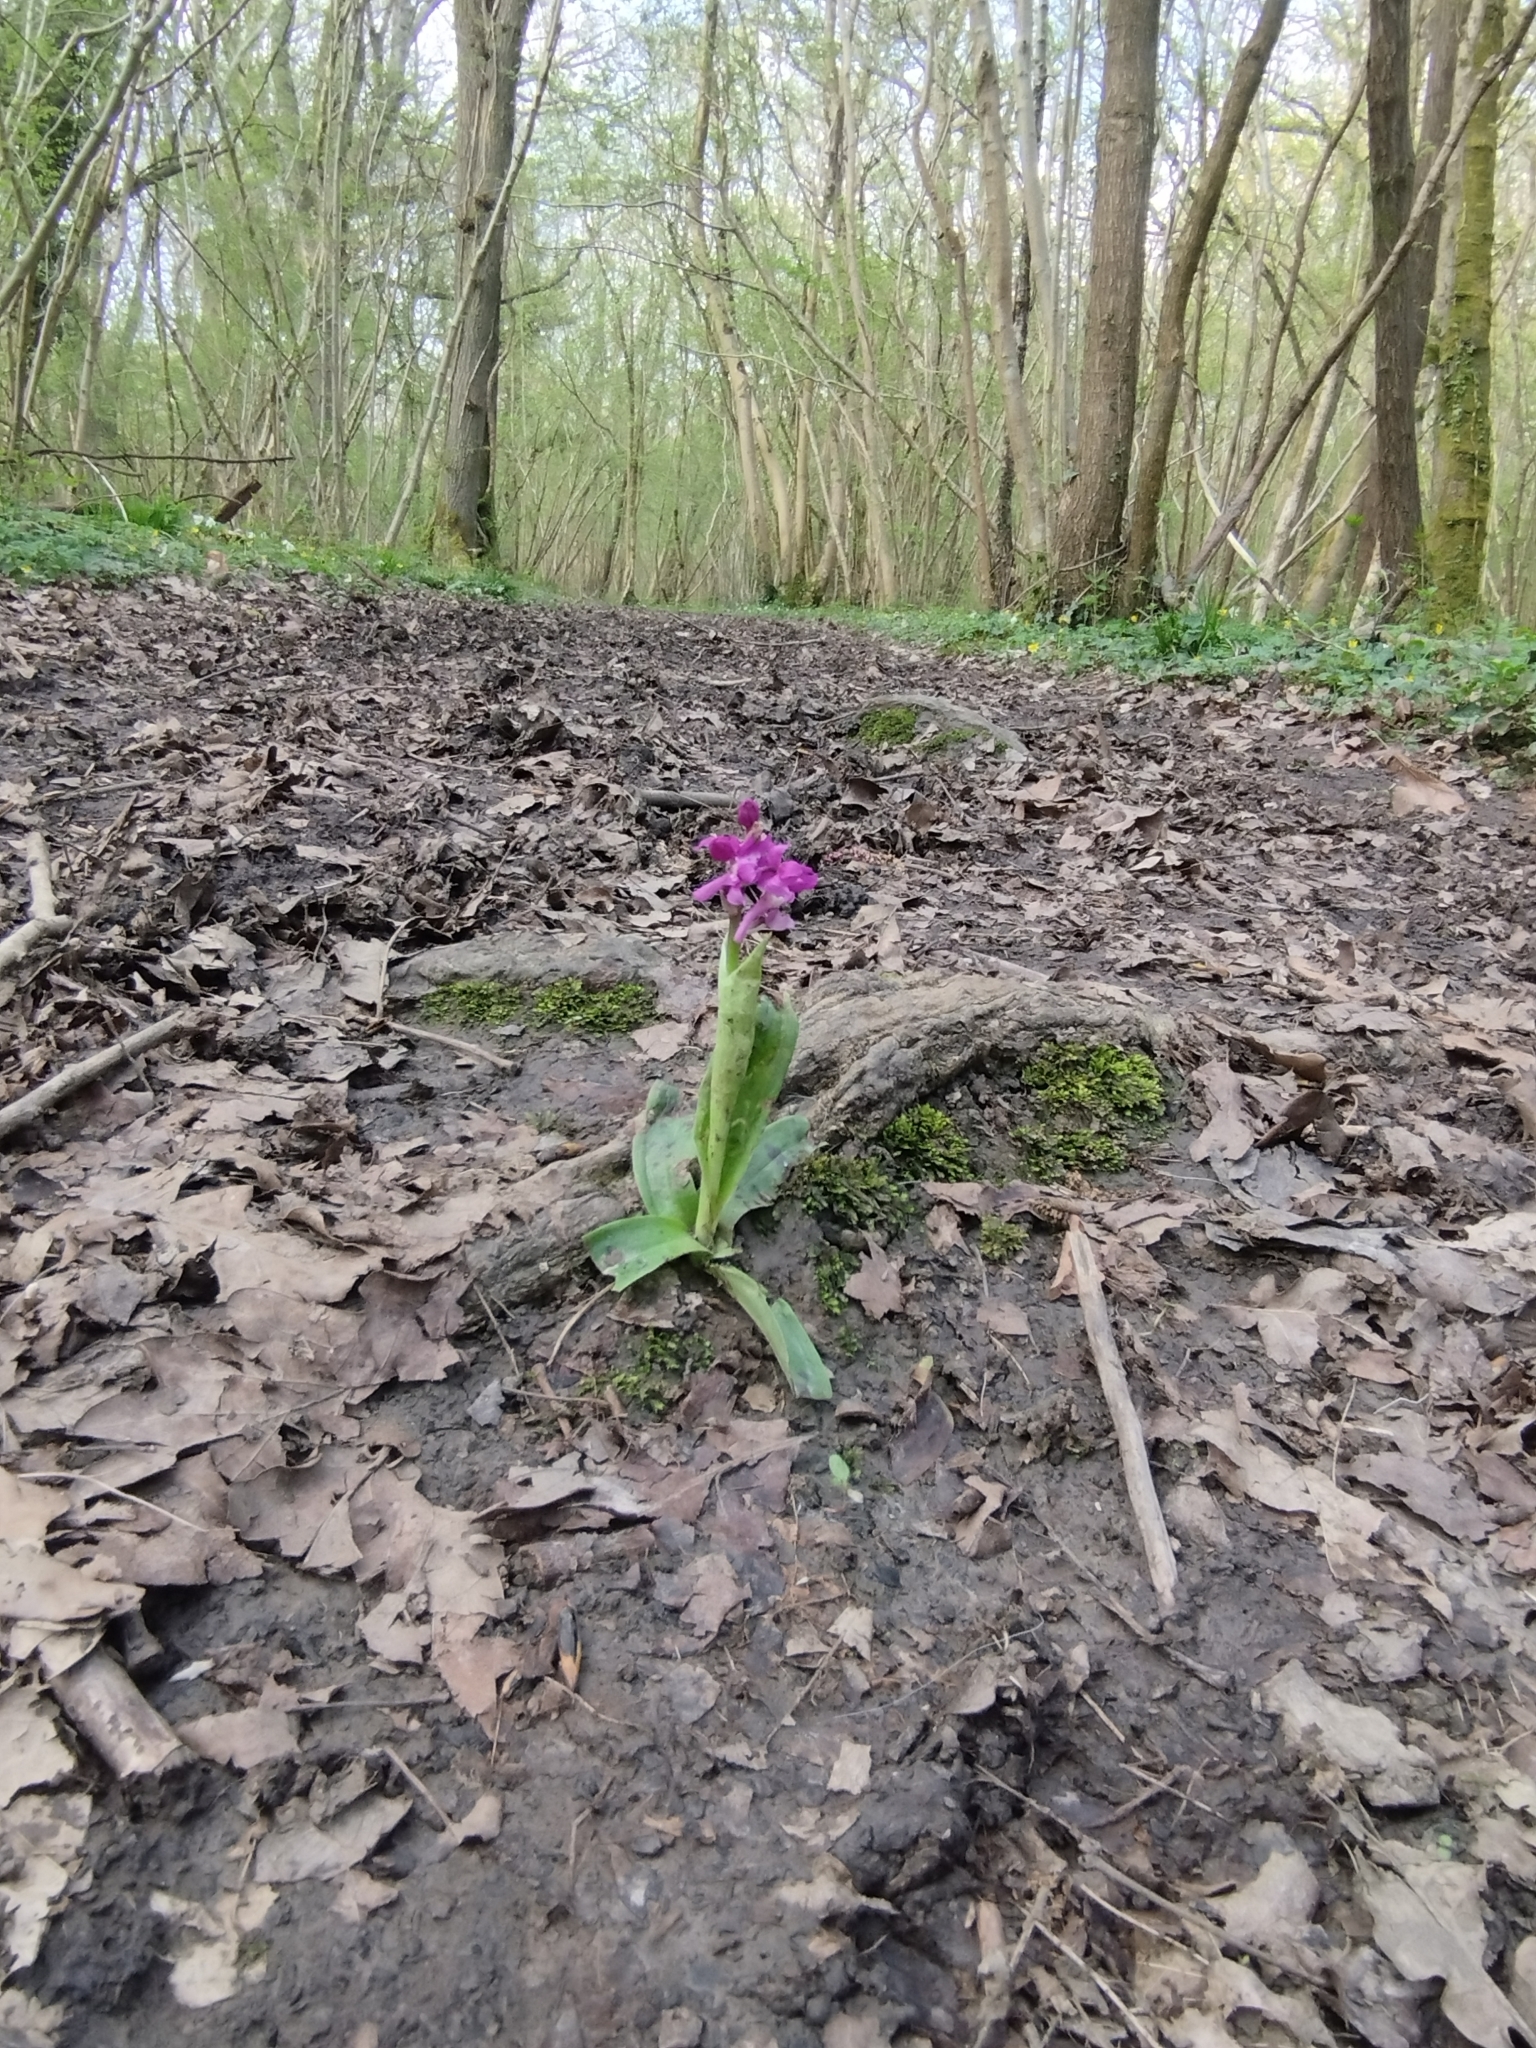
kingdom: Plantae
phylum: Tracheophyta
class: Liliopsida
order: Asparagales
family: Orchidaceae
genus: Orchis
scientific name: Orchis mascula
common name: Early-purple orchid
